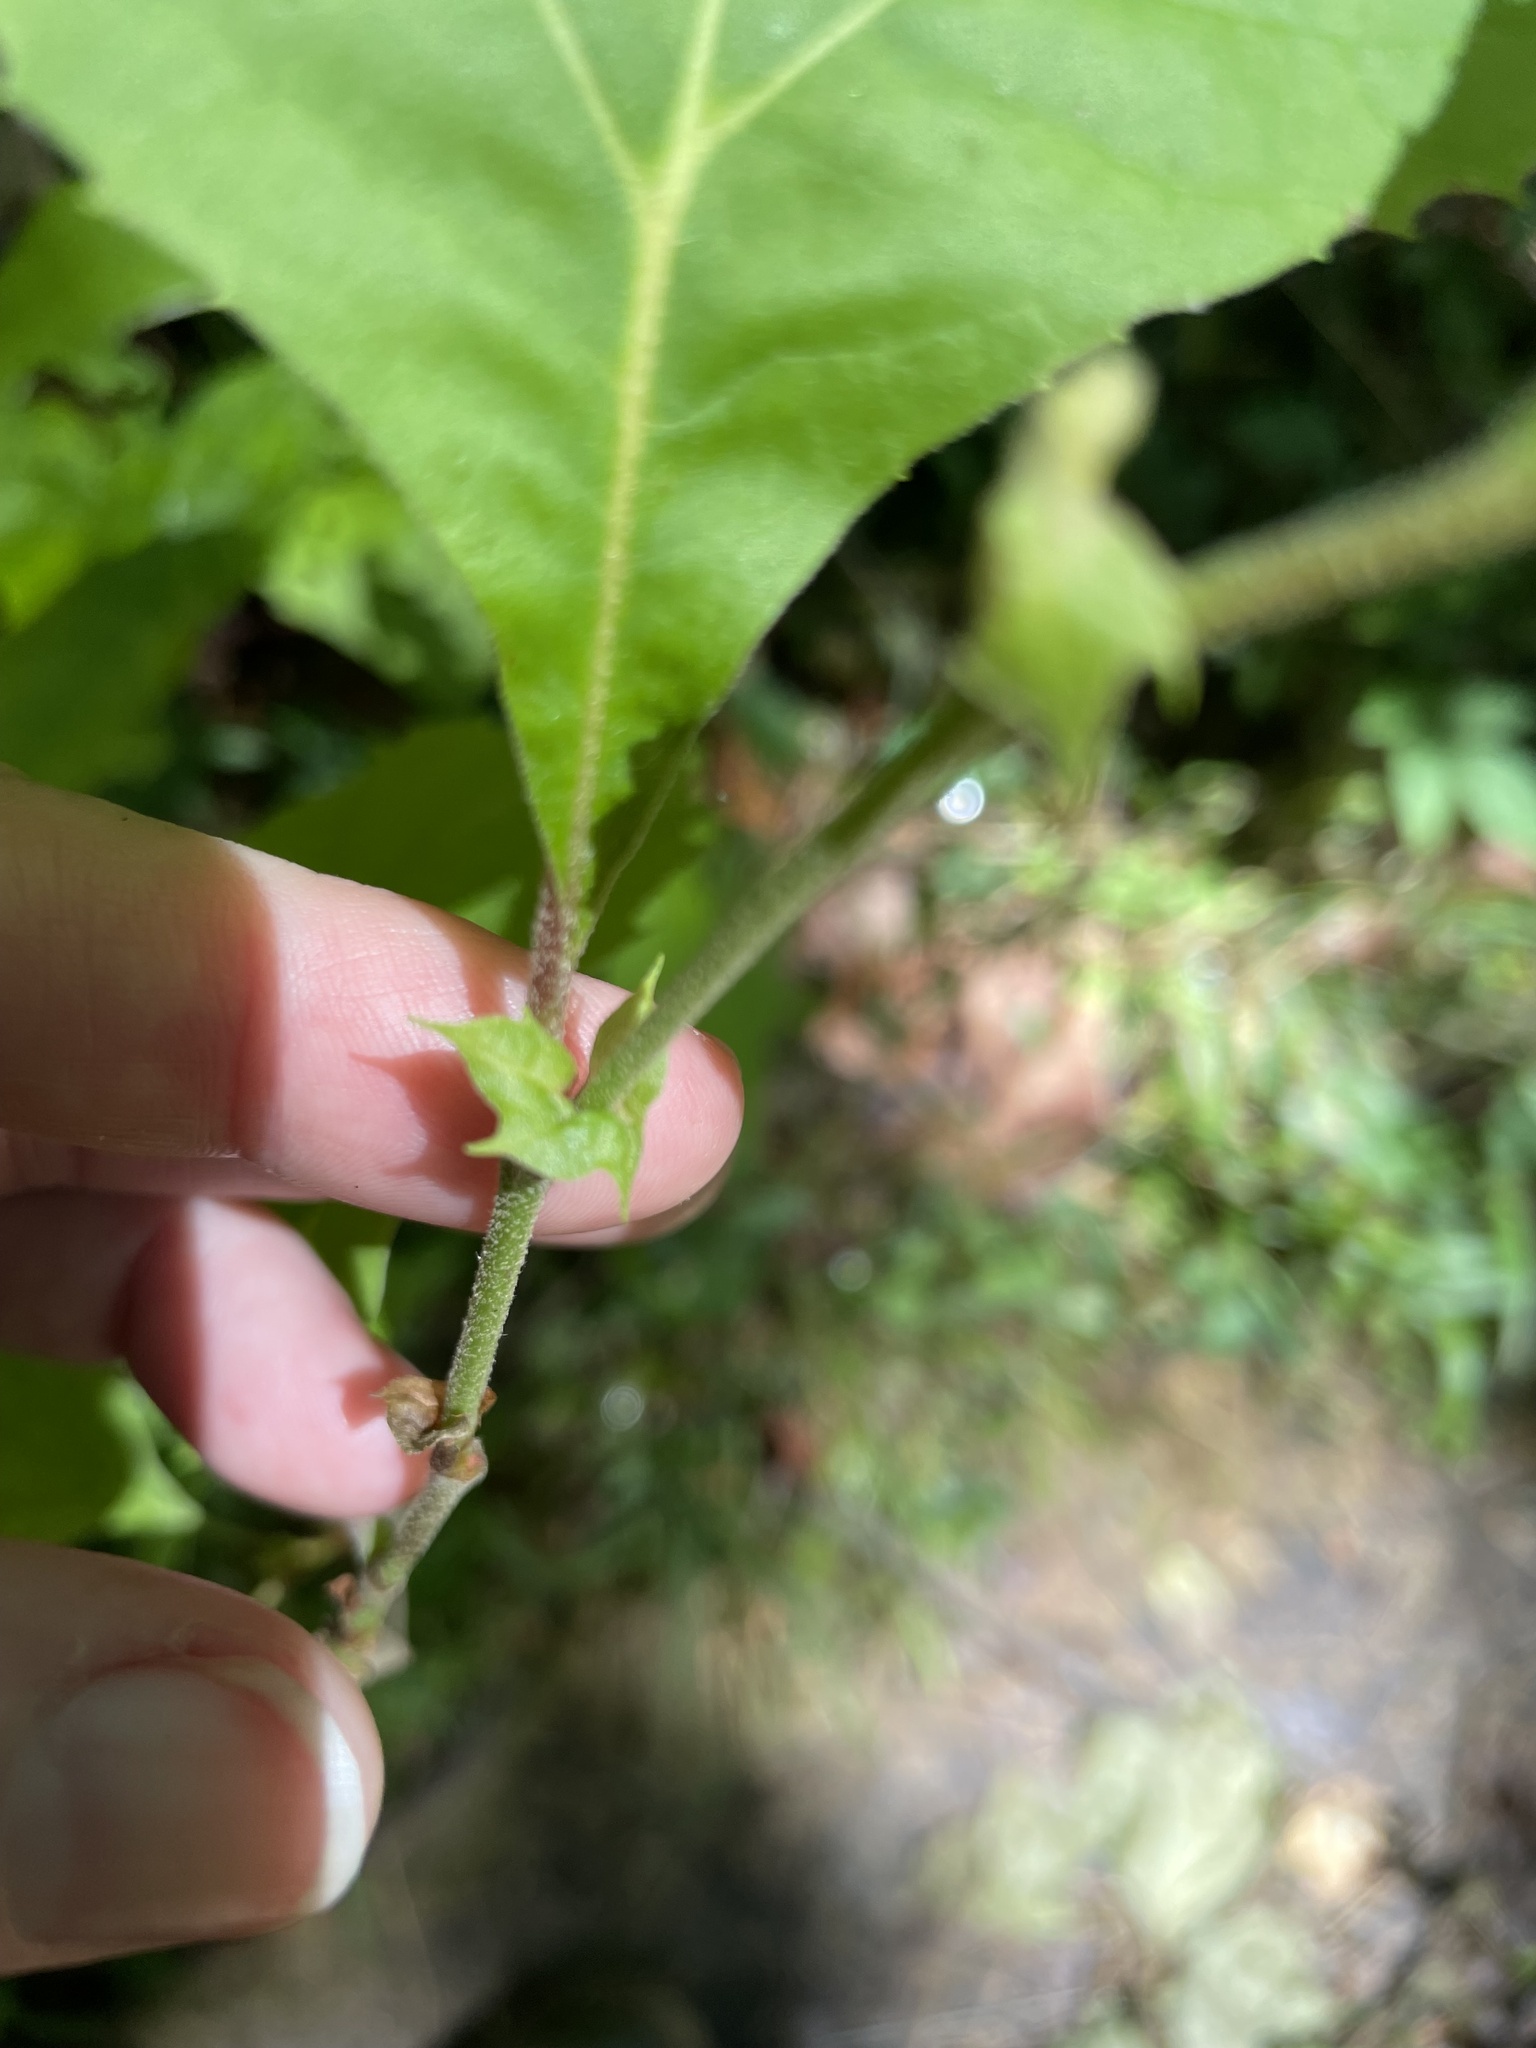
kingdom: Plantae
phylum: Tracheophyta
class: Magnoliopsida
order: Proteales
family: Platanaceae
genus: Platanus
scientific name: Platanus occidentalis
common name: American sycamore
